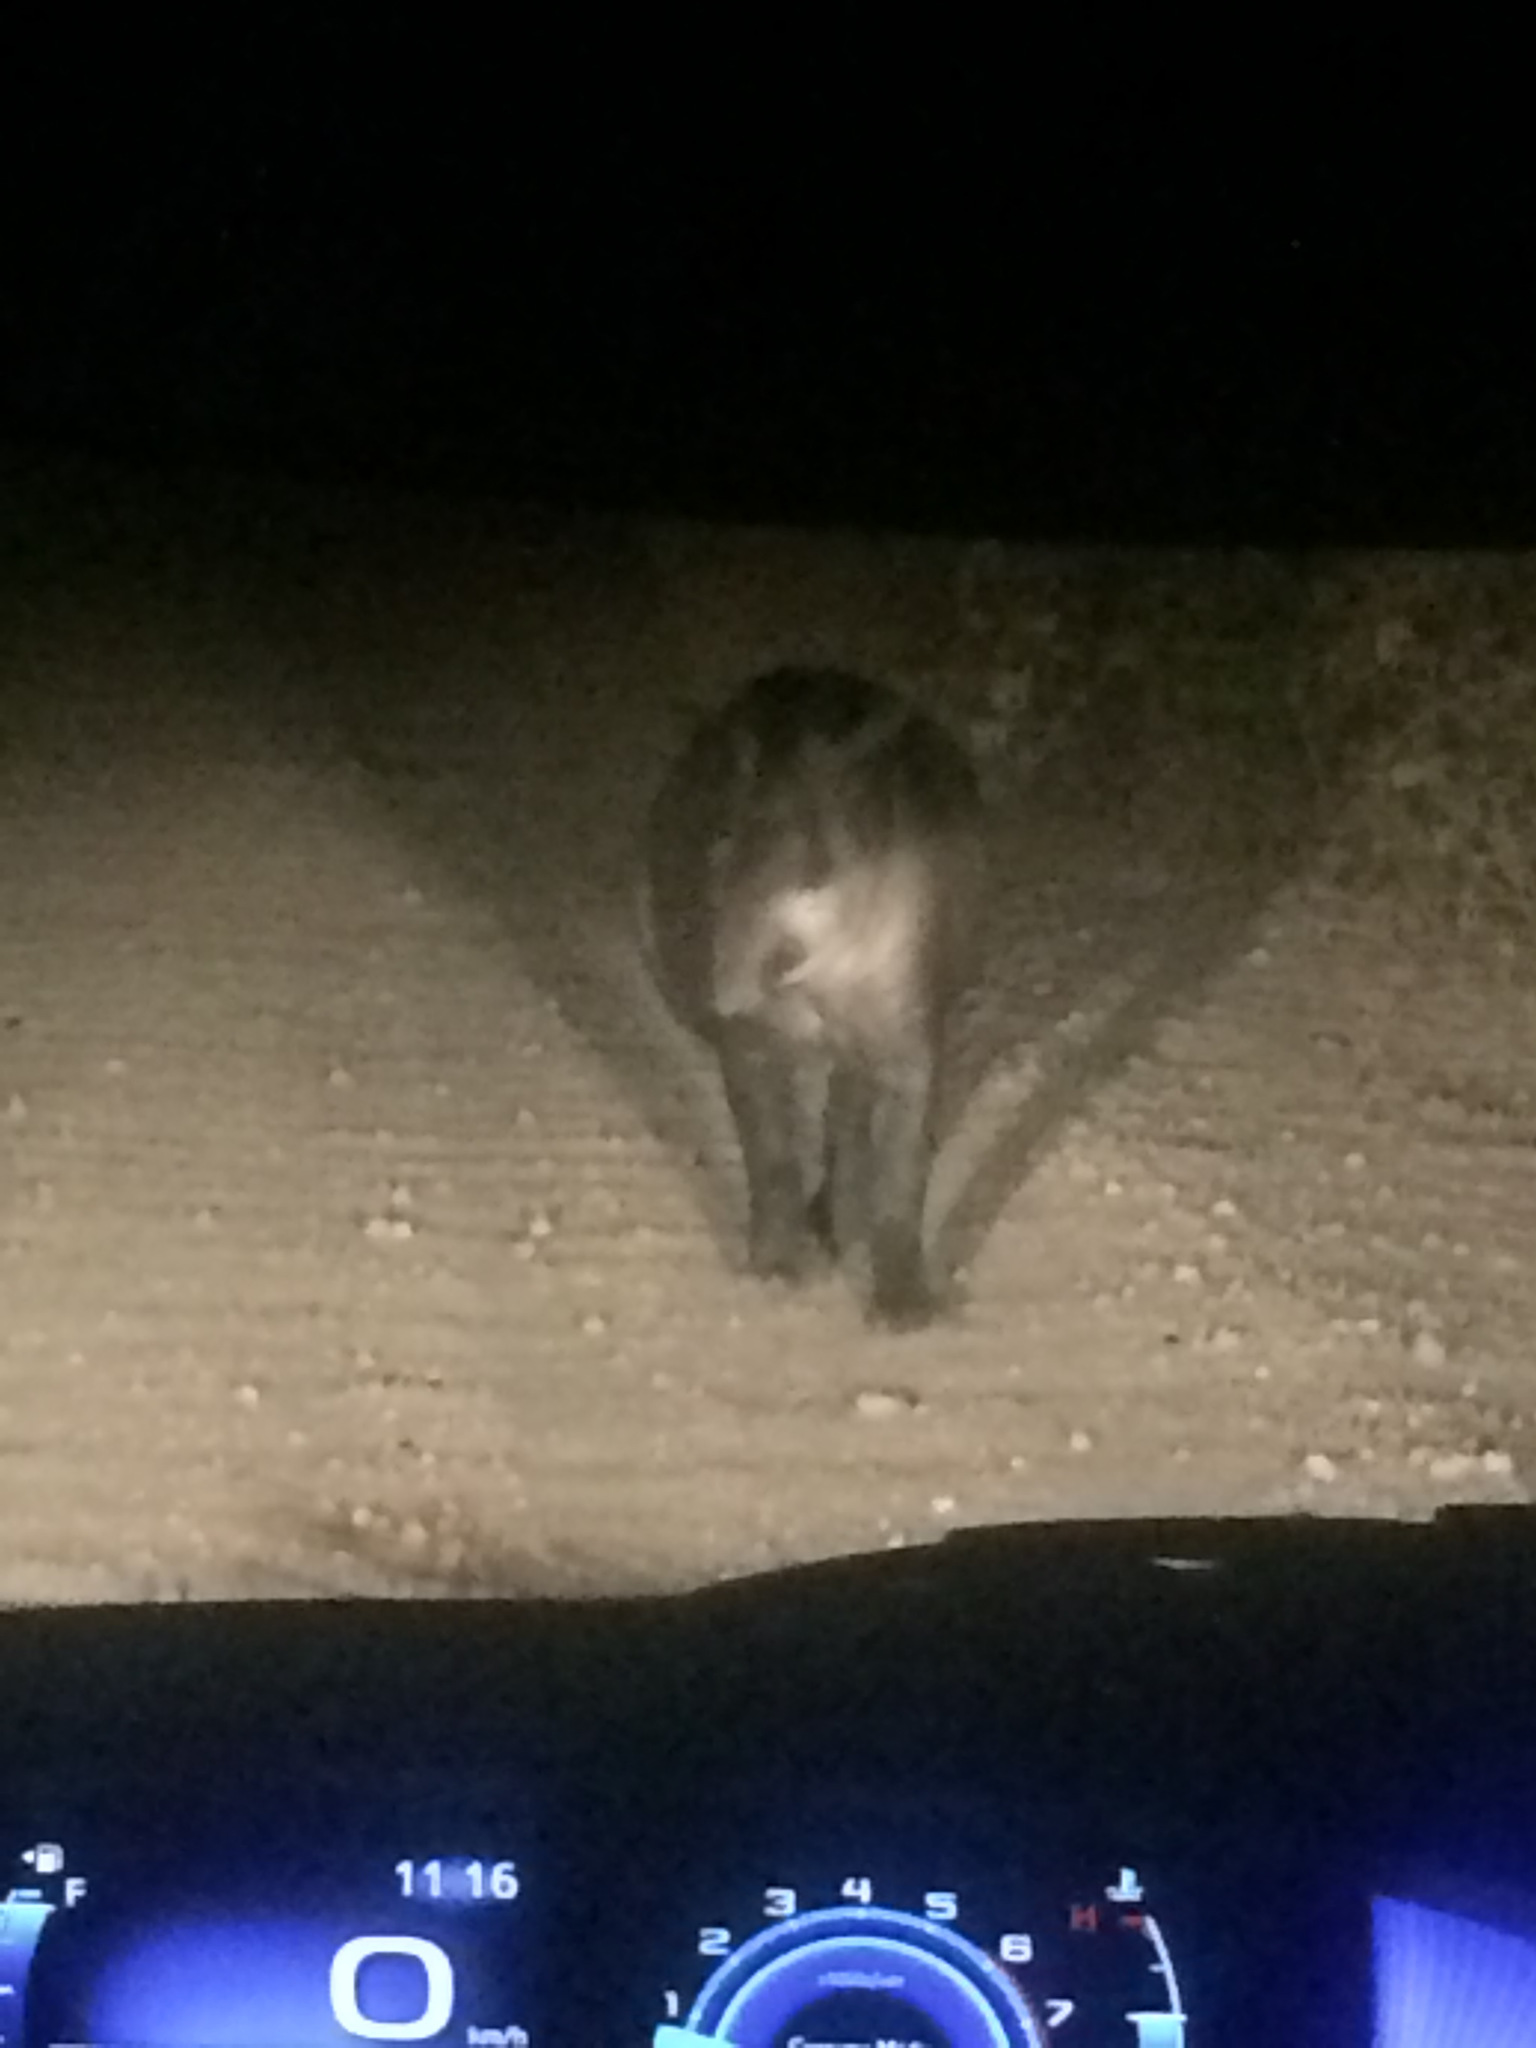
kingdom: Animalia
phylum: Chordata
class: Mammalia
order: Perissodactyla
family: Tapiridae
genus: Tapirus
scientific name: Tapirus terrestris
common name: Brazilian tapir
